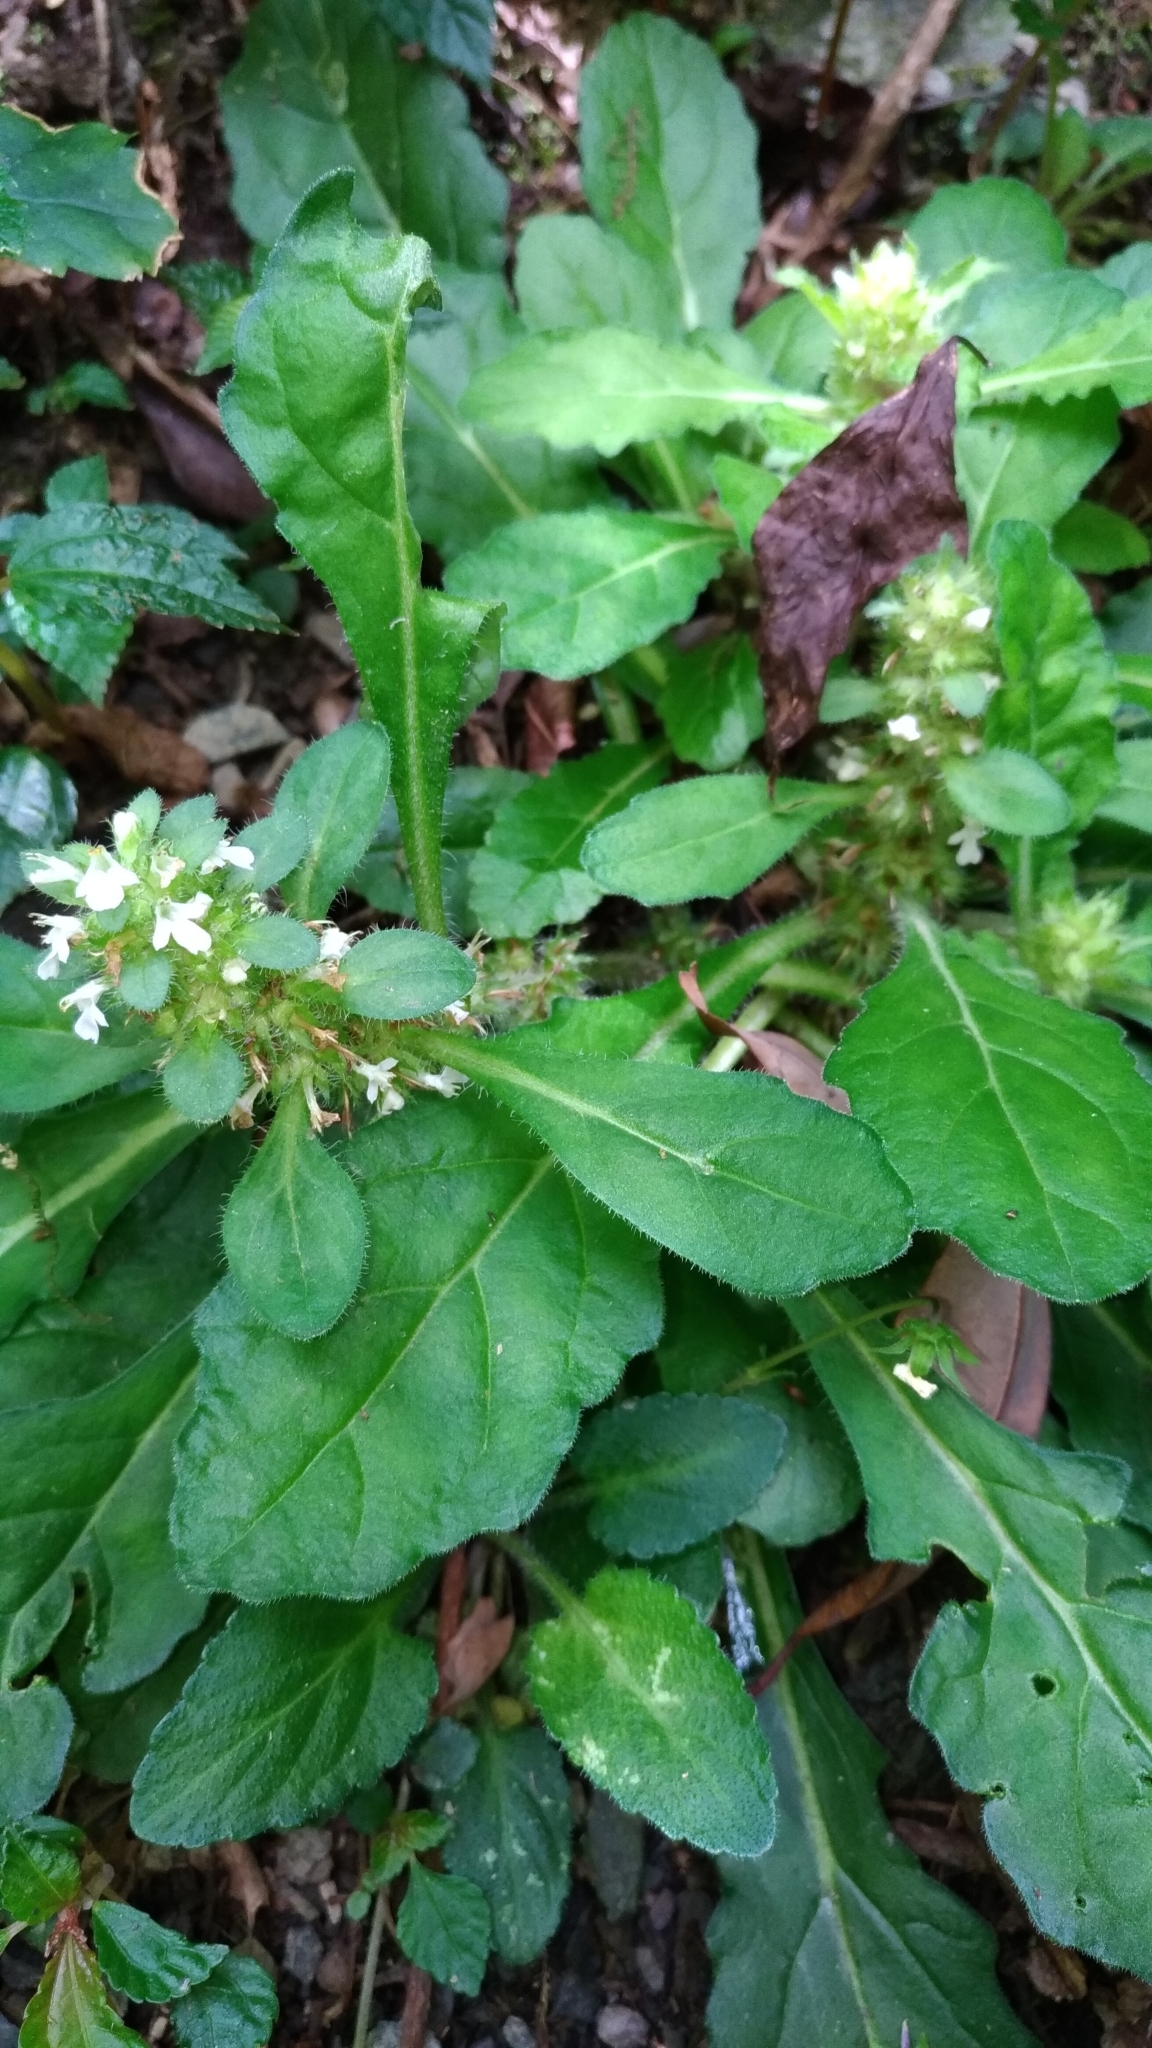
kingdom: Plantae
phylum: Tracheophyta
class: Magnoliopsida
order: Lamiales
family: Lamiaceae
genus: Ajuga
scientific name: Ajuga taiwanensis
